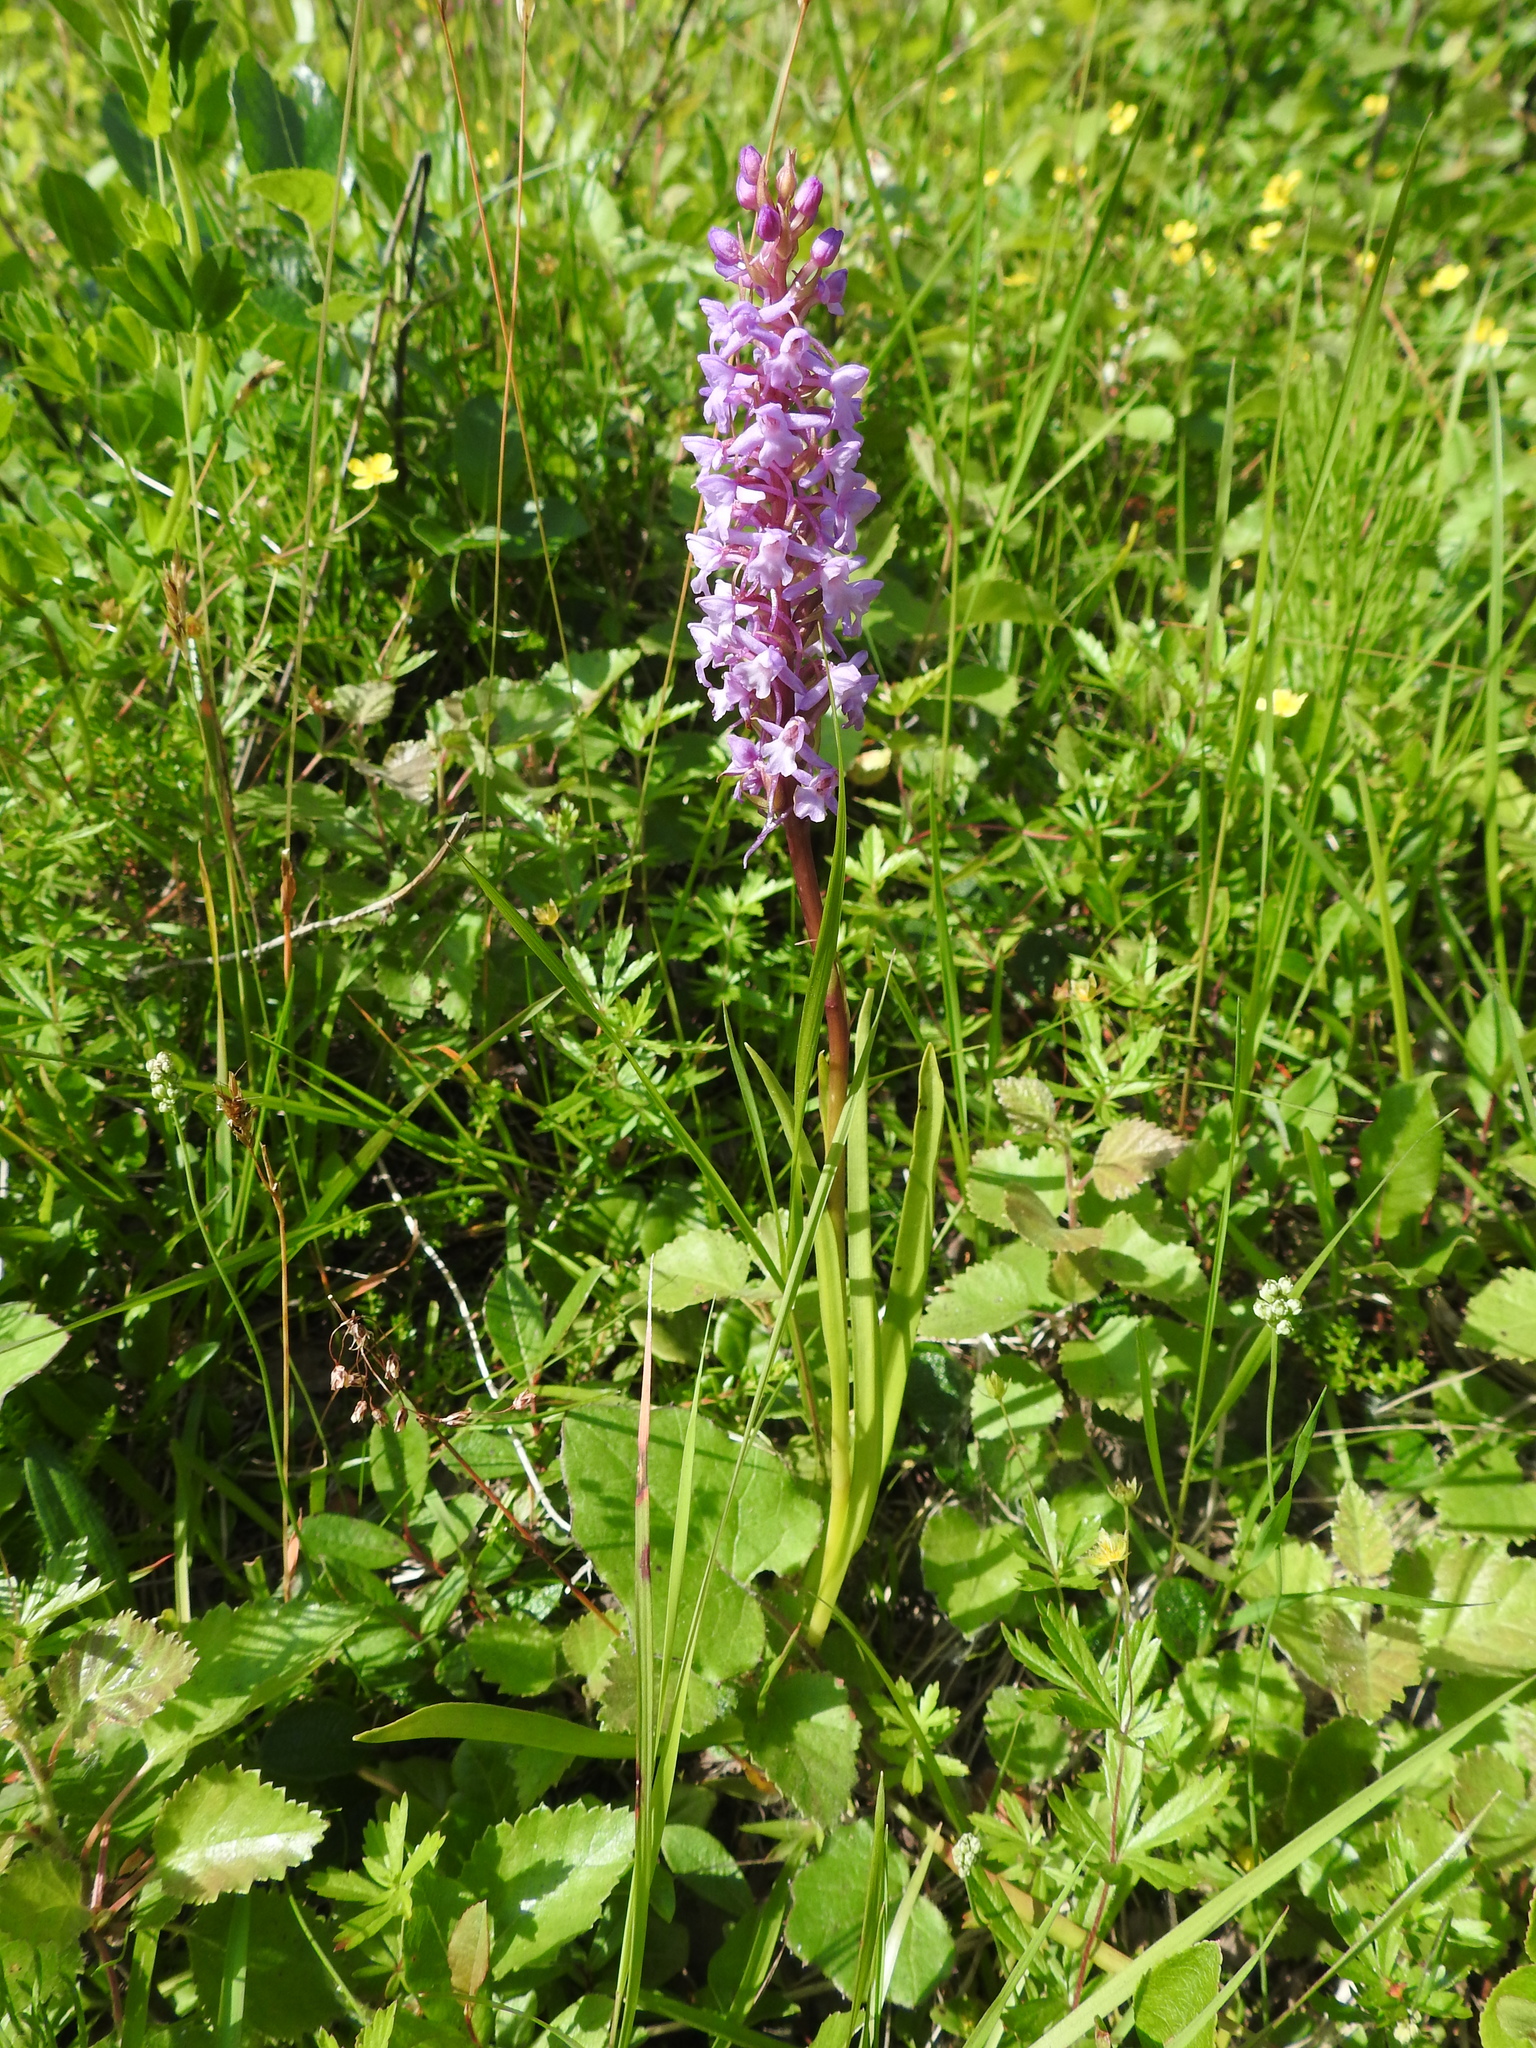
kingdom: Plantae
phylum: Tracheophyta
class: Liliopsida
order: Asparagales
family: Orchidaceae
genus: Gymnadenia
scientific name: Gymnadenia conopsea
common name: Fragrant orchid
